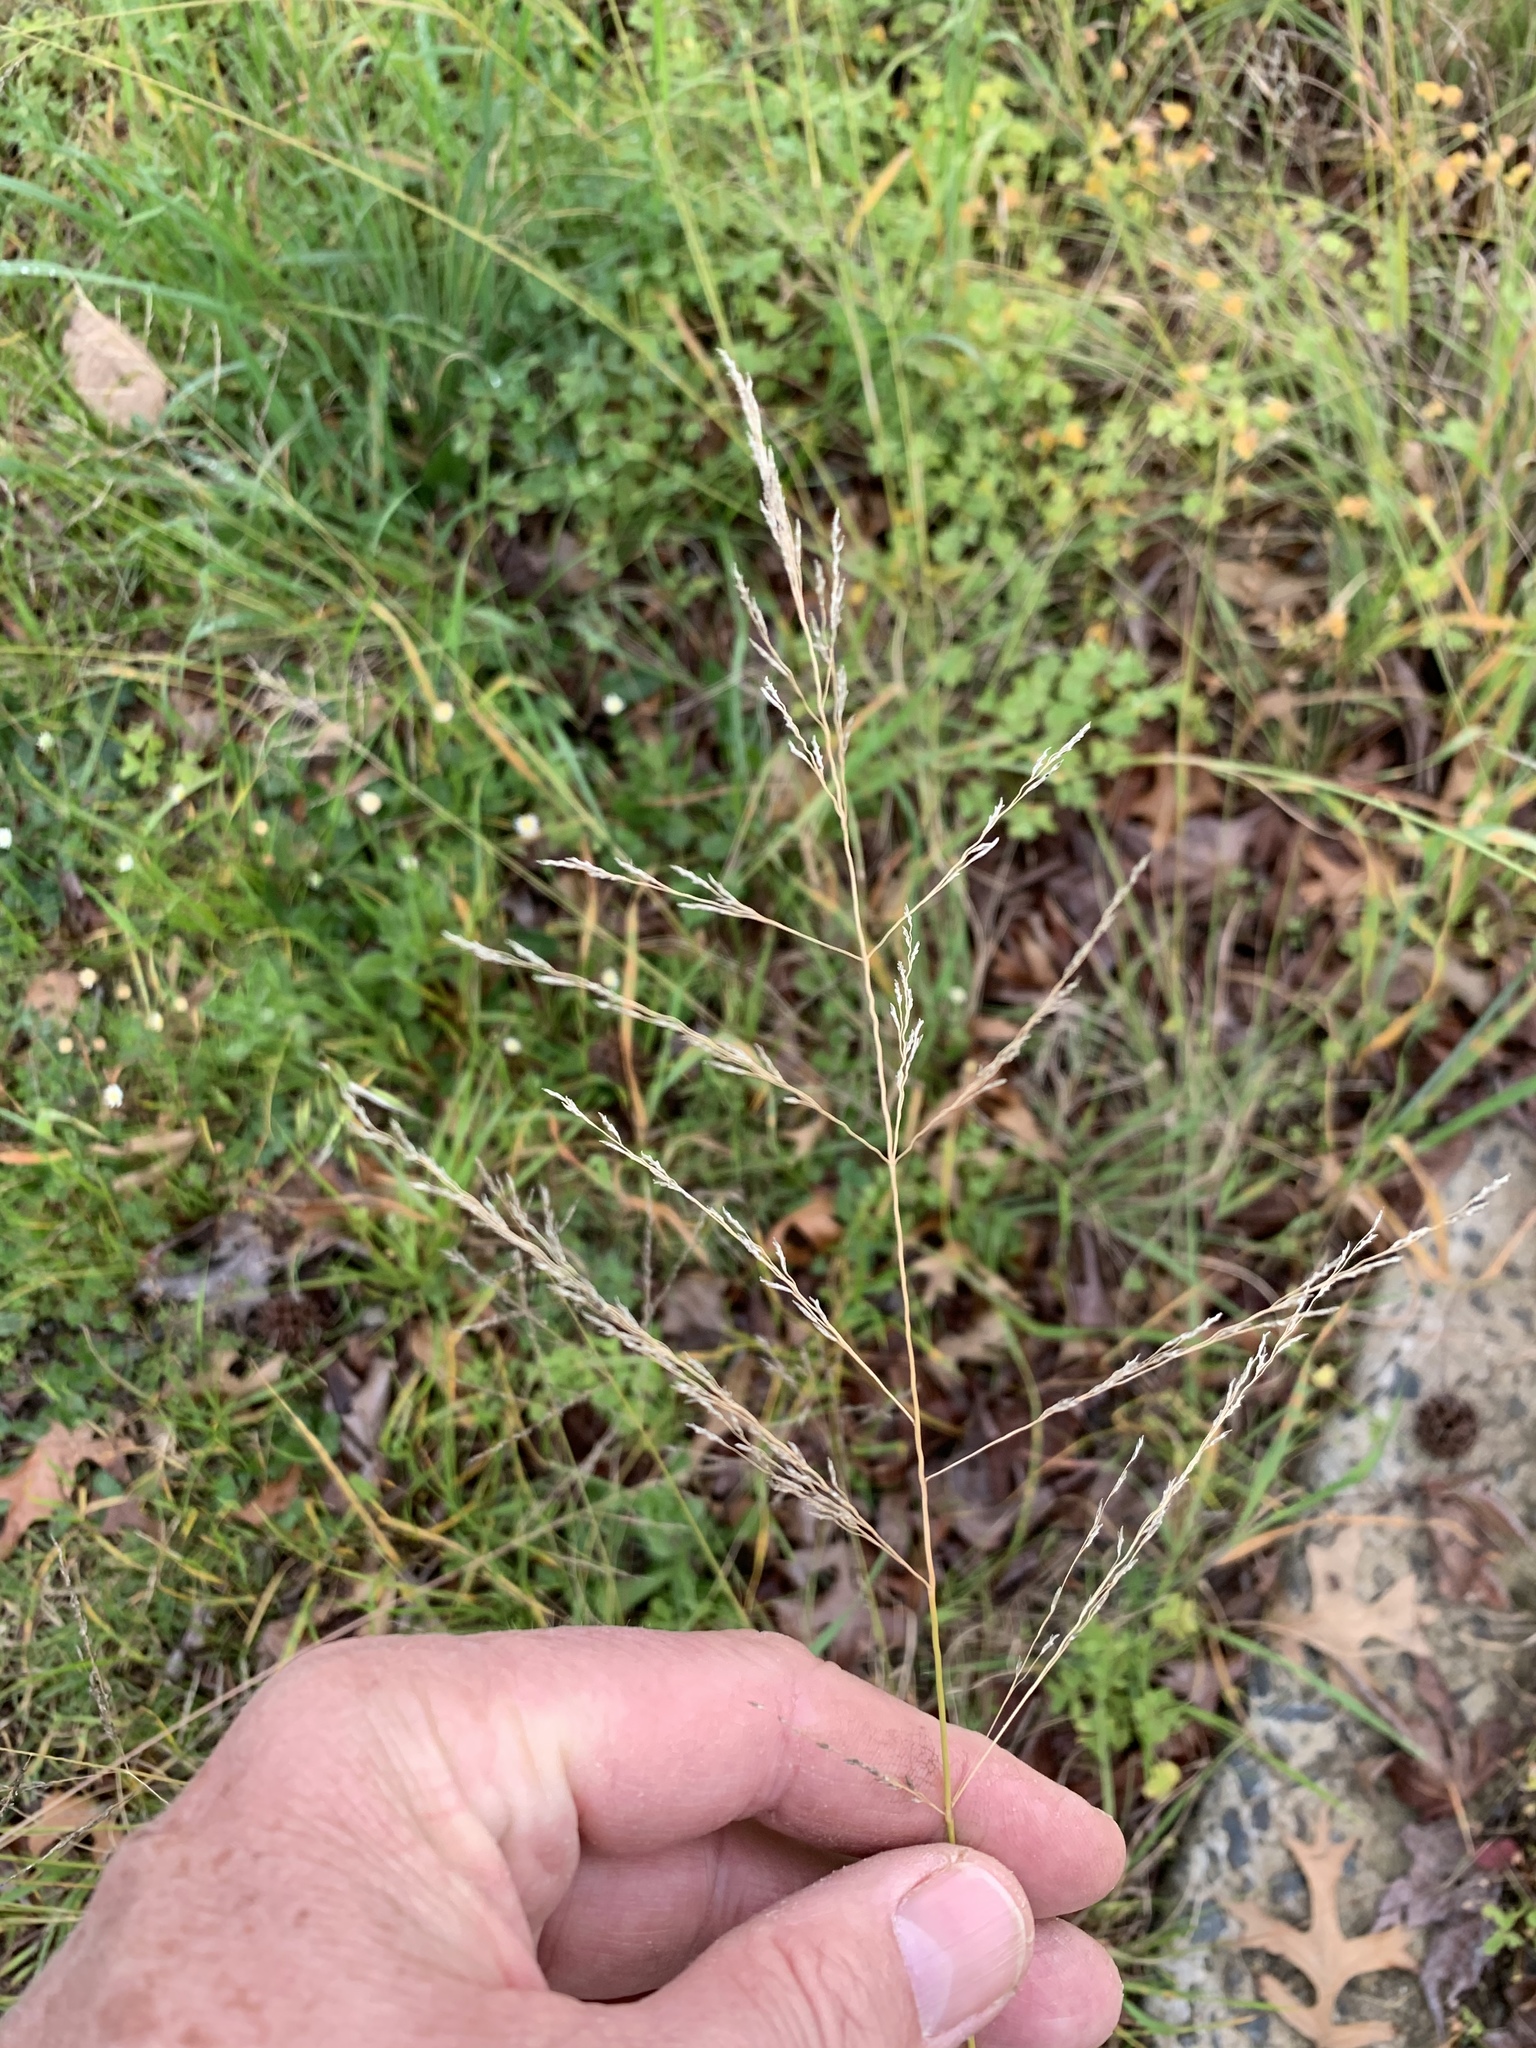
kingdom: Plantae
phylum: Tracheophyta
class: Liliopsida
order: Poales
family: Poaceae
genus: Eragrostis
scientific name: Eragrostis curvula
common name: African love-grass
